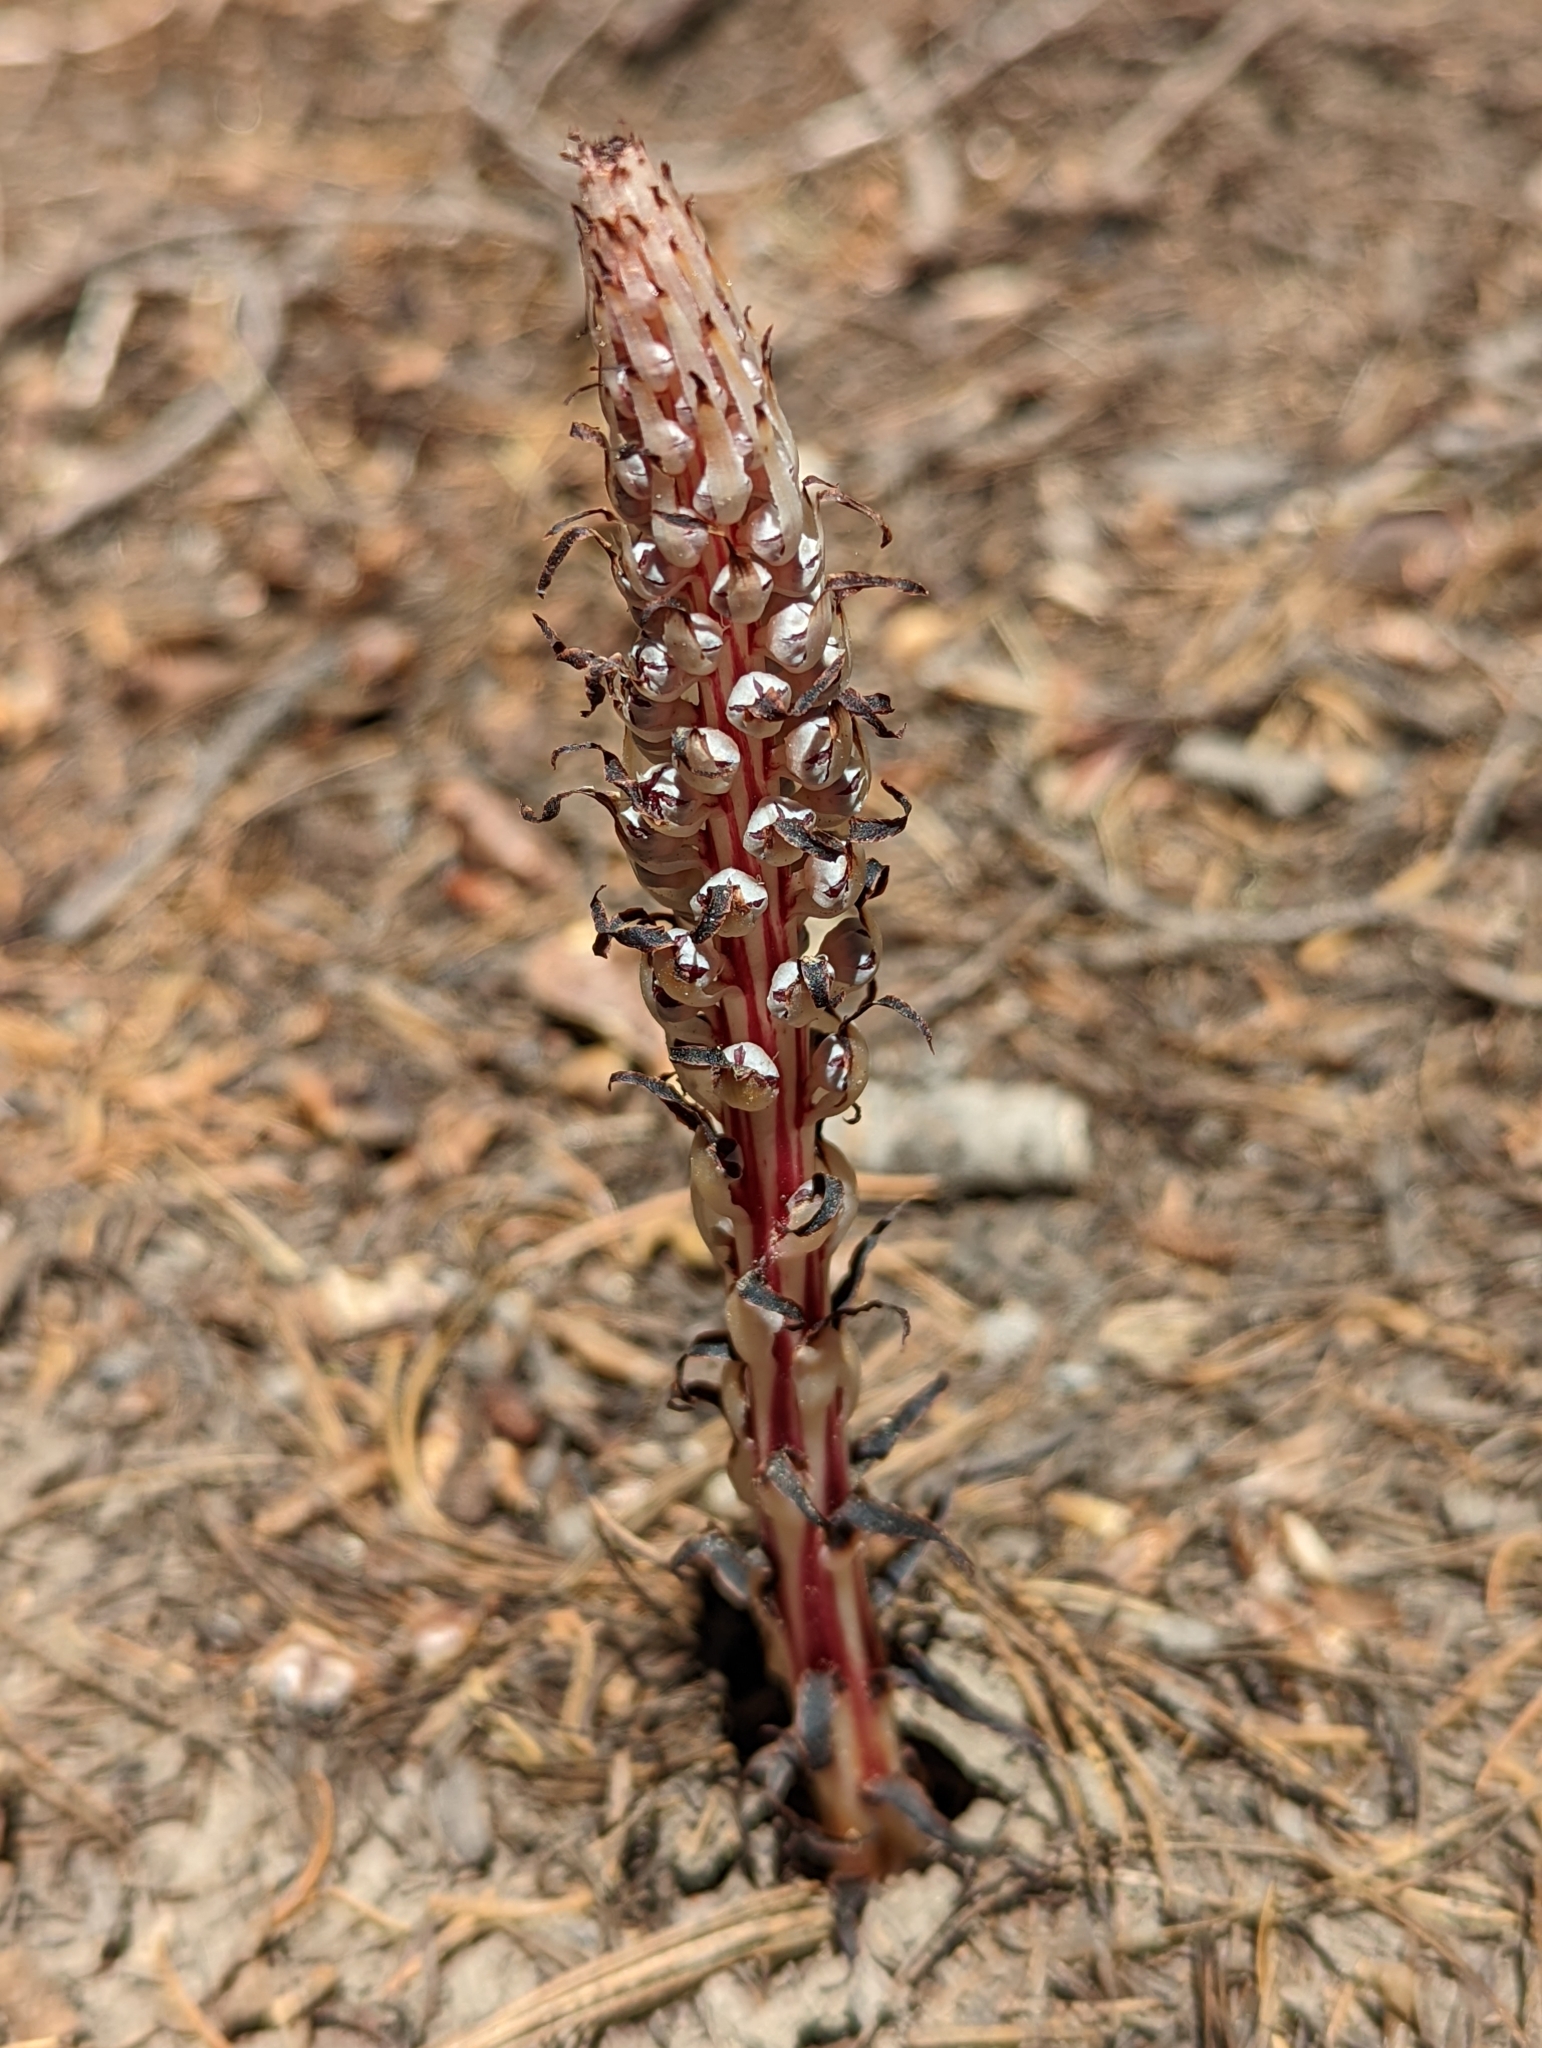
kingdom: Plantae
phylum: Tracheophyta
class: Magnoliopsida
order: Ericales
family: Ericaceae
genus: Allotropa
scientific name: Allotropa virgata
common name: Candy-striped allotropa
